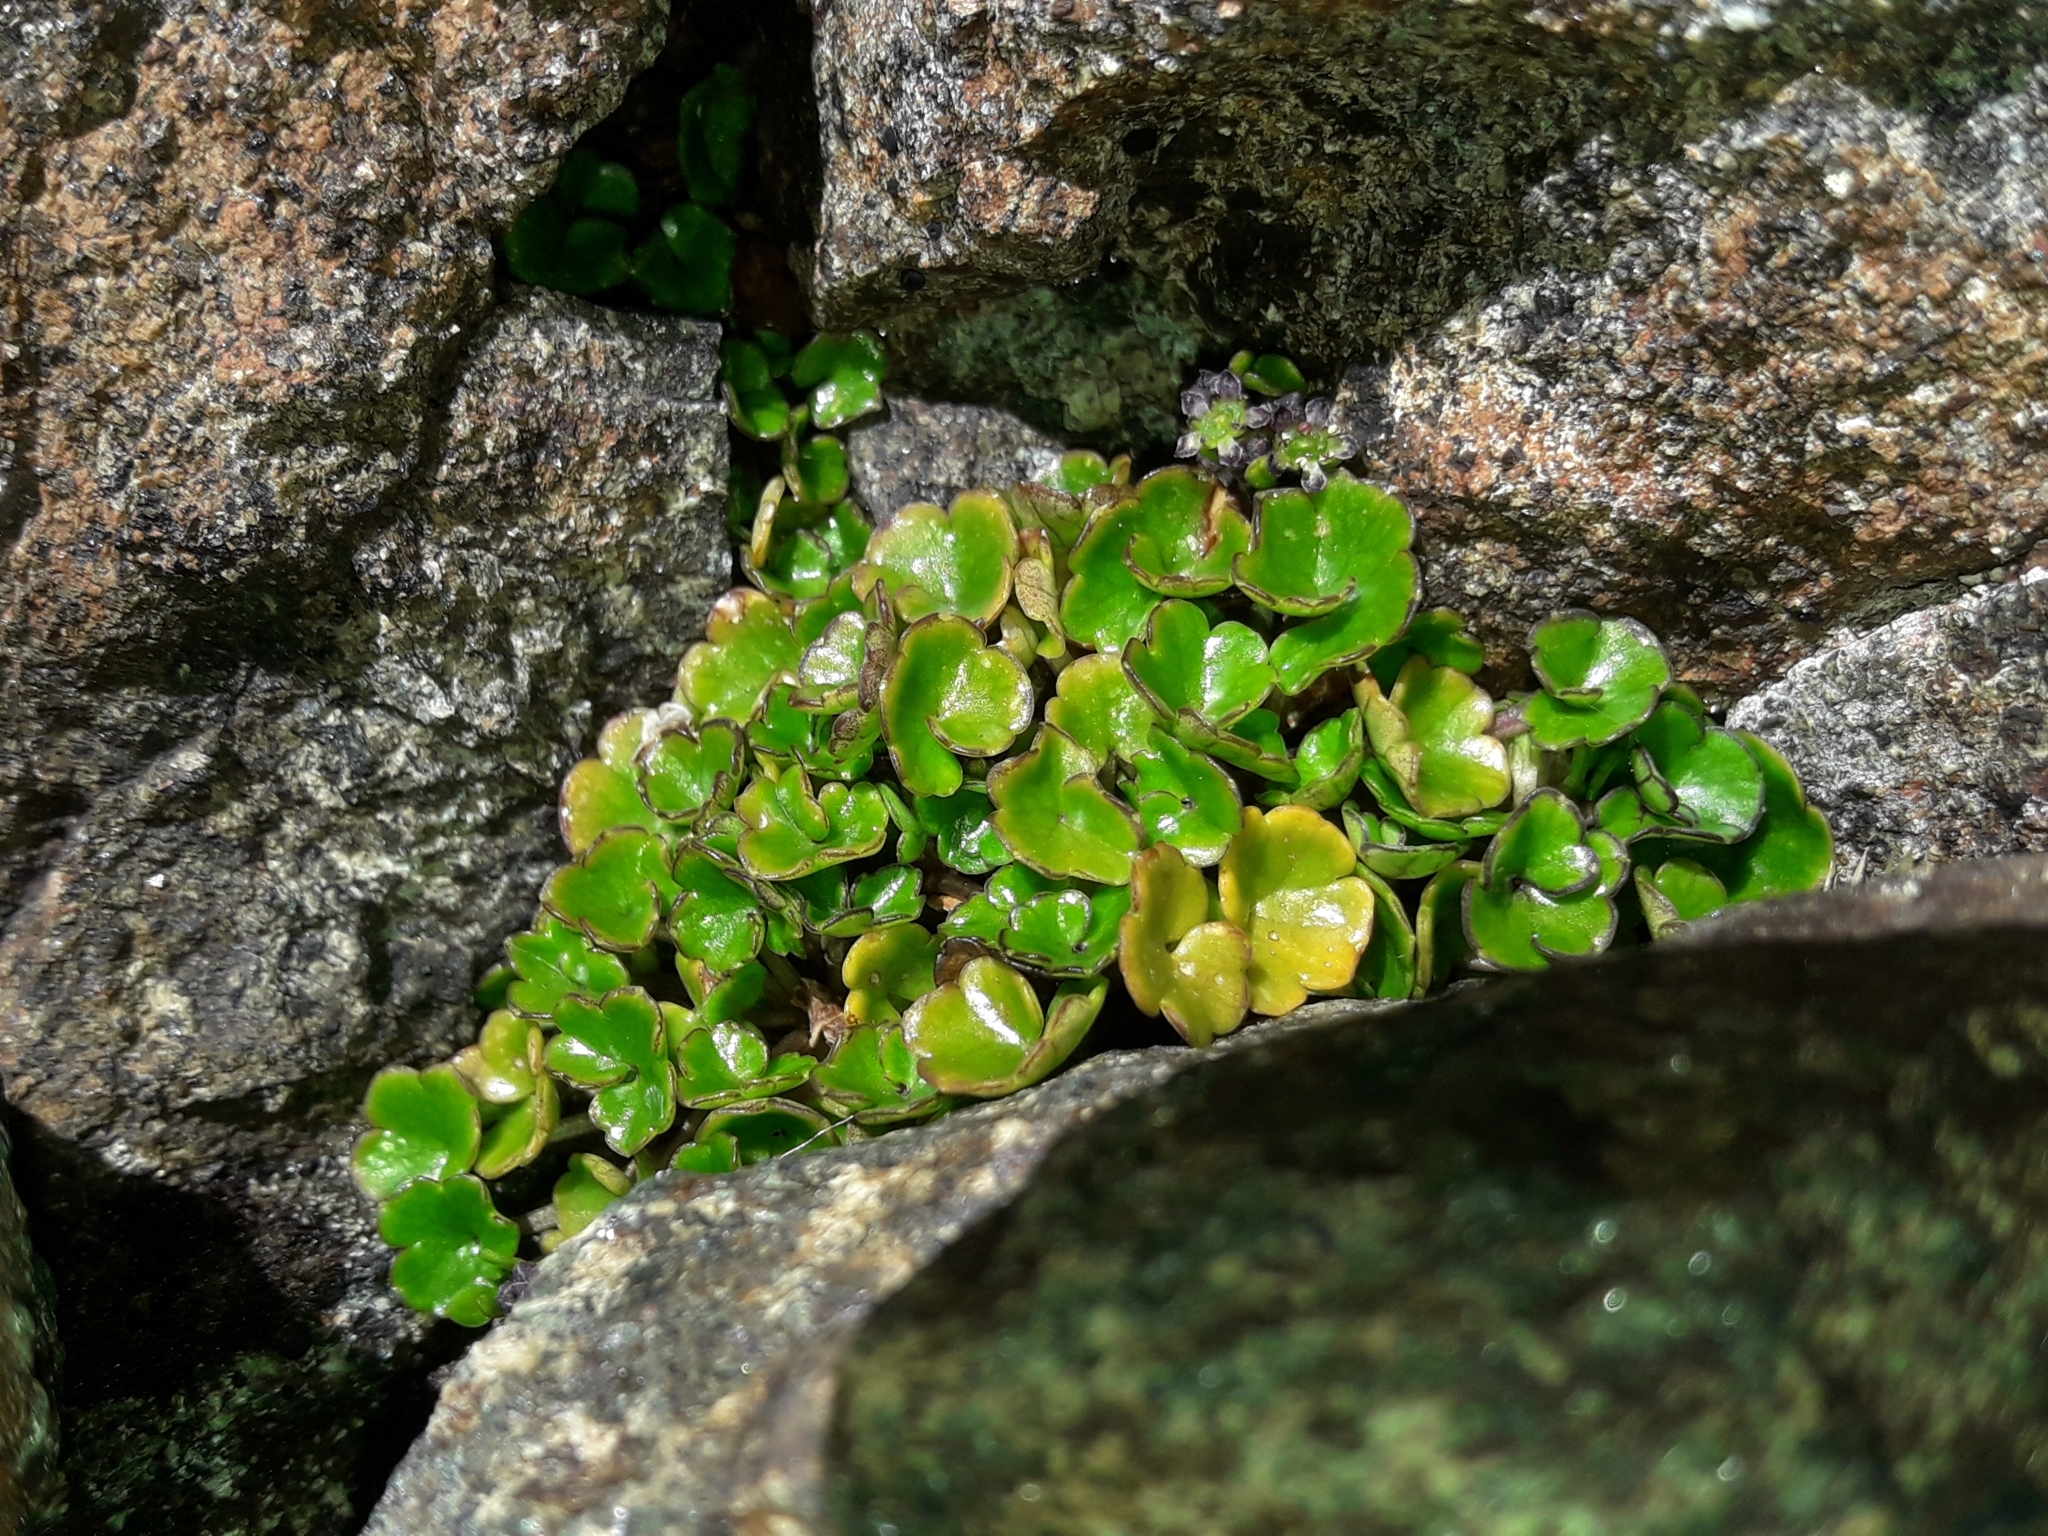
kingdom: Plantae
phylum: Tracheophyta
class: Magnoliopsida
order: Apiales
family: Apiaceae
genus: Azorella
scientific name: Azorella haastii
